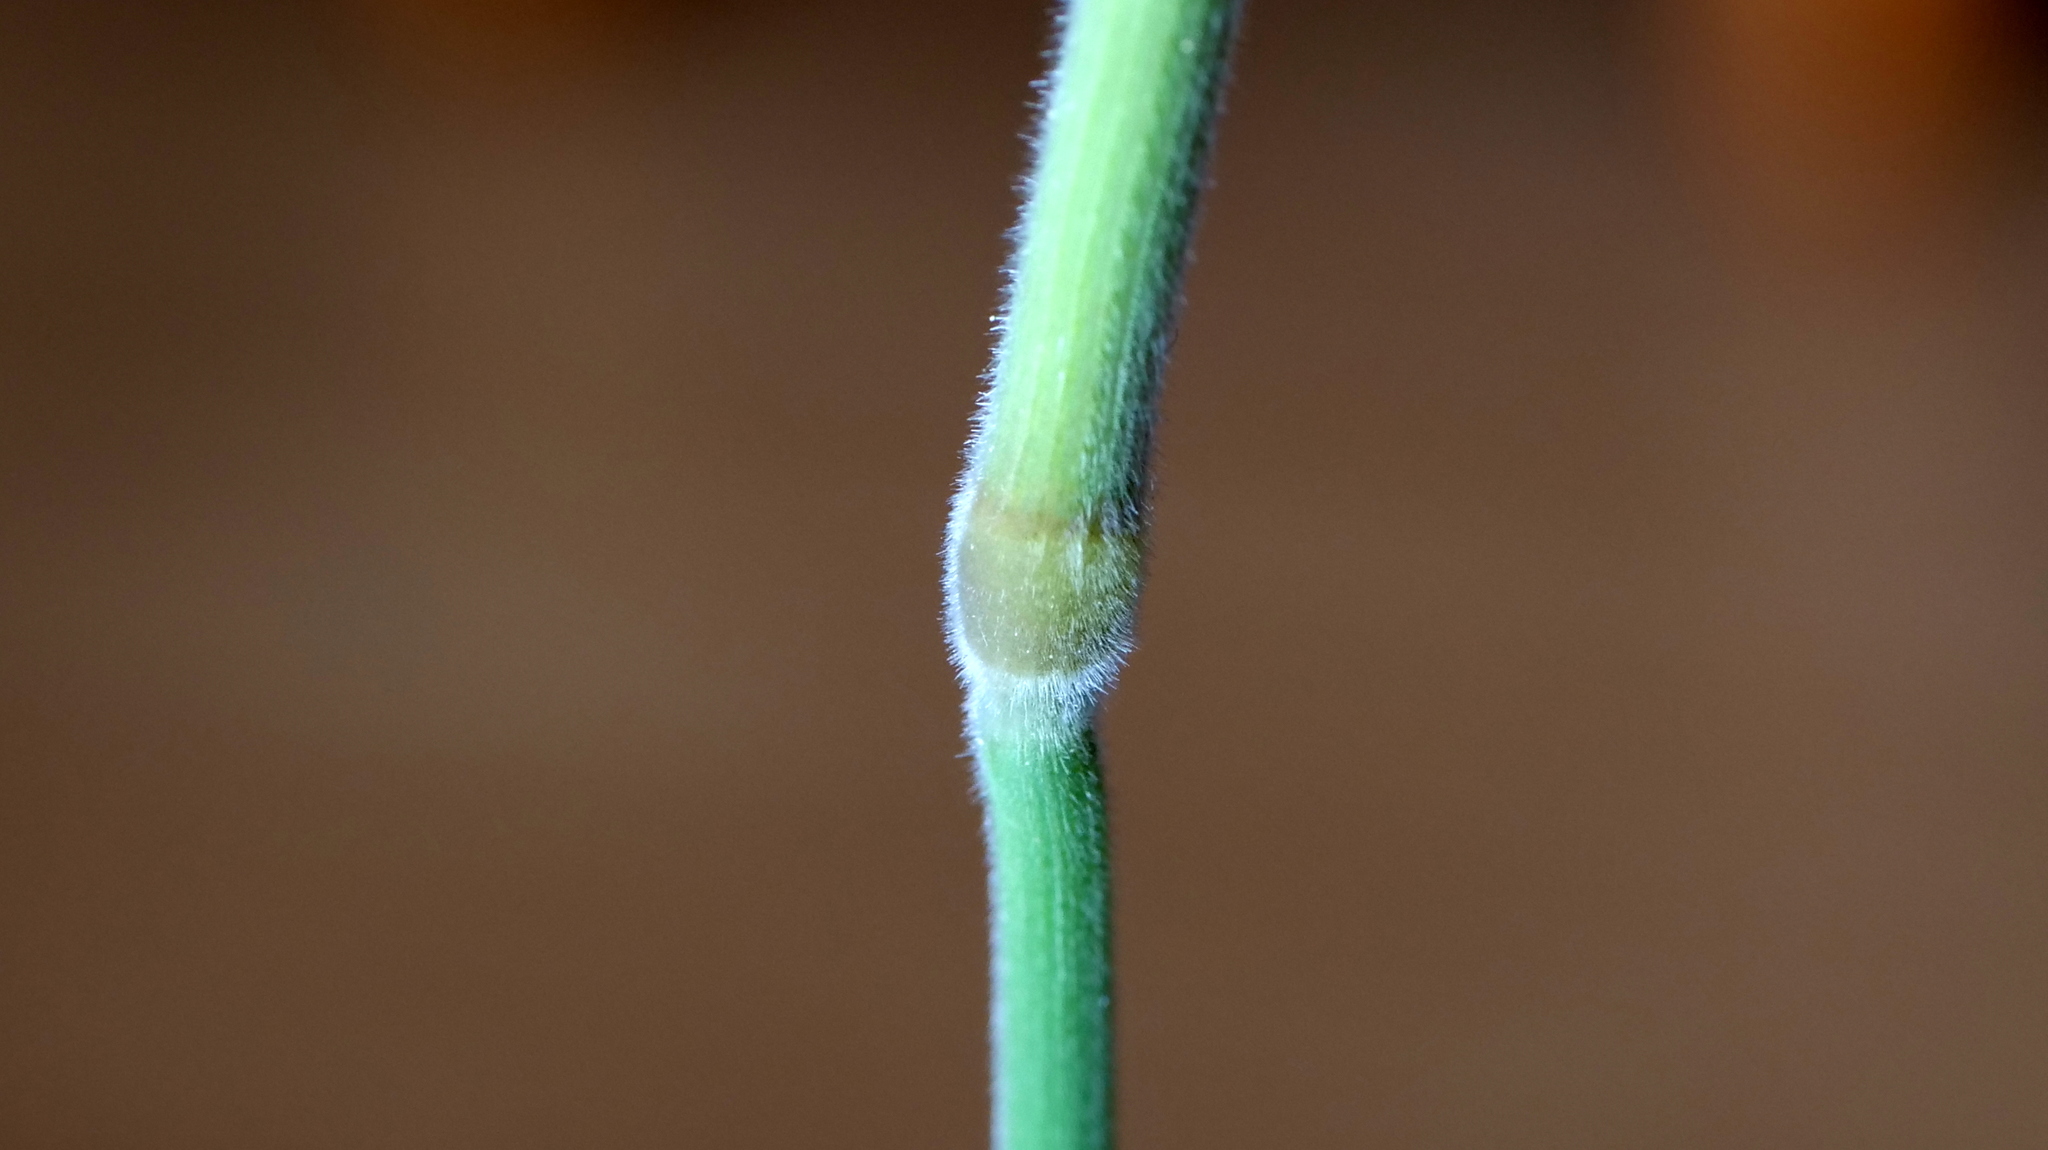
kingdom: Plantae
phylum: Tracheophyta
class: Liliopsida
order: Poales
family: Poaceae
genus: Holcus
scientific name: Holcus lanatus
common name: Yorkshire-fog
